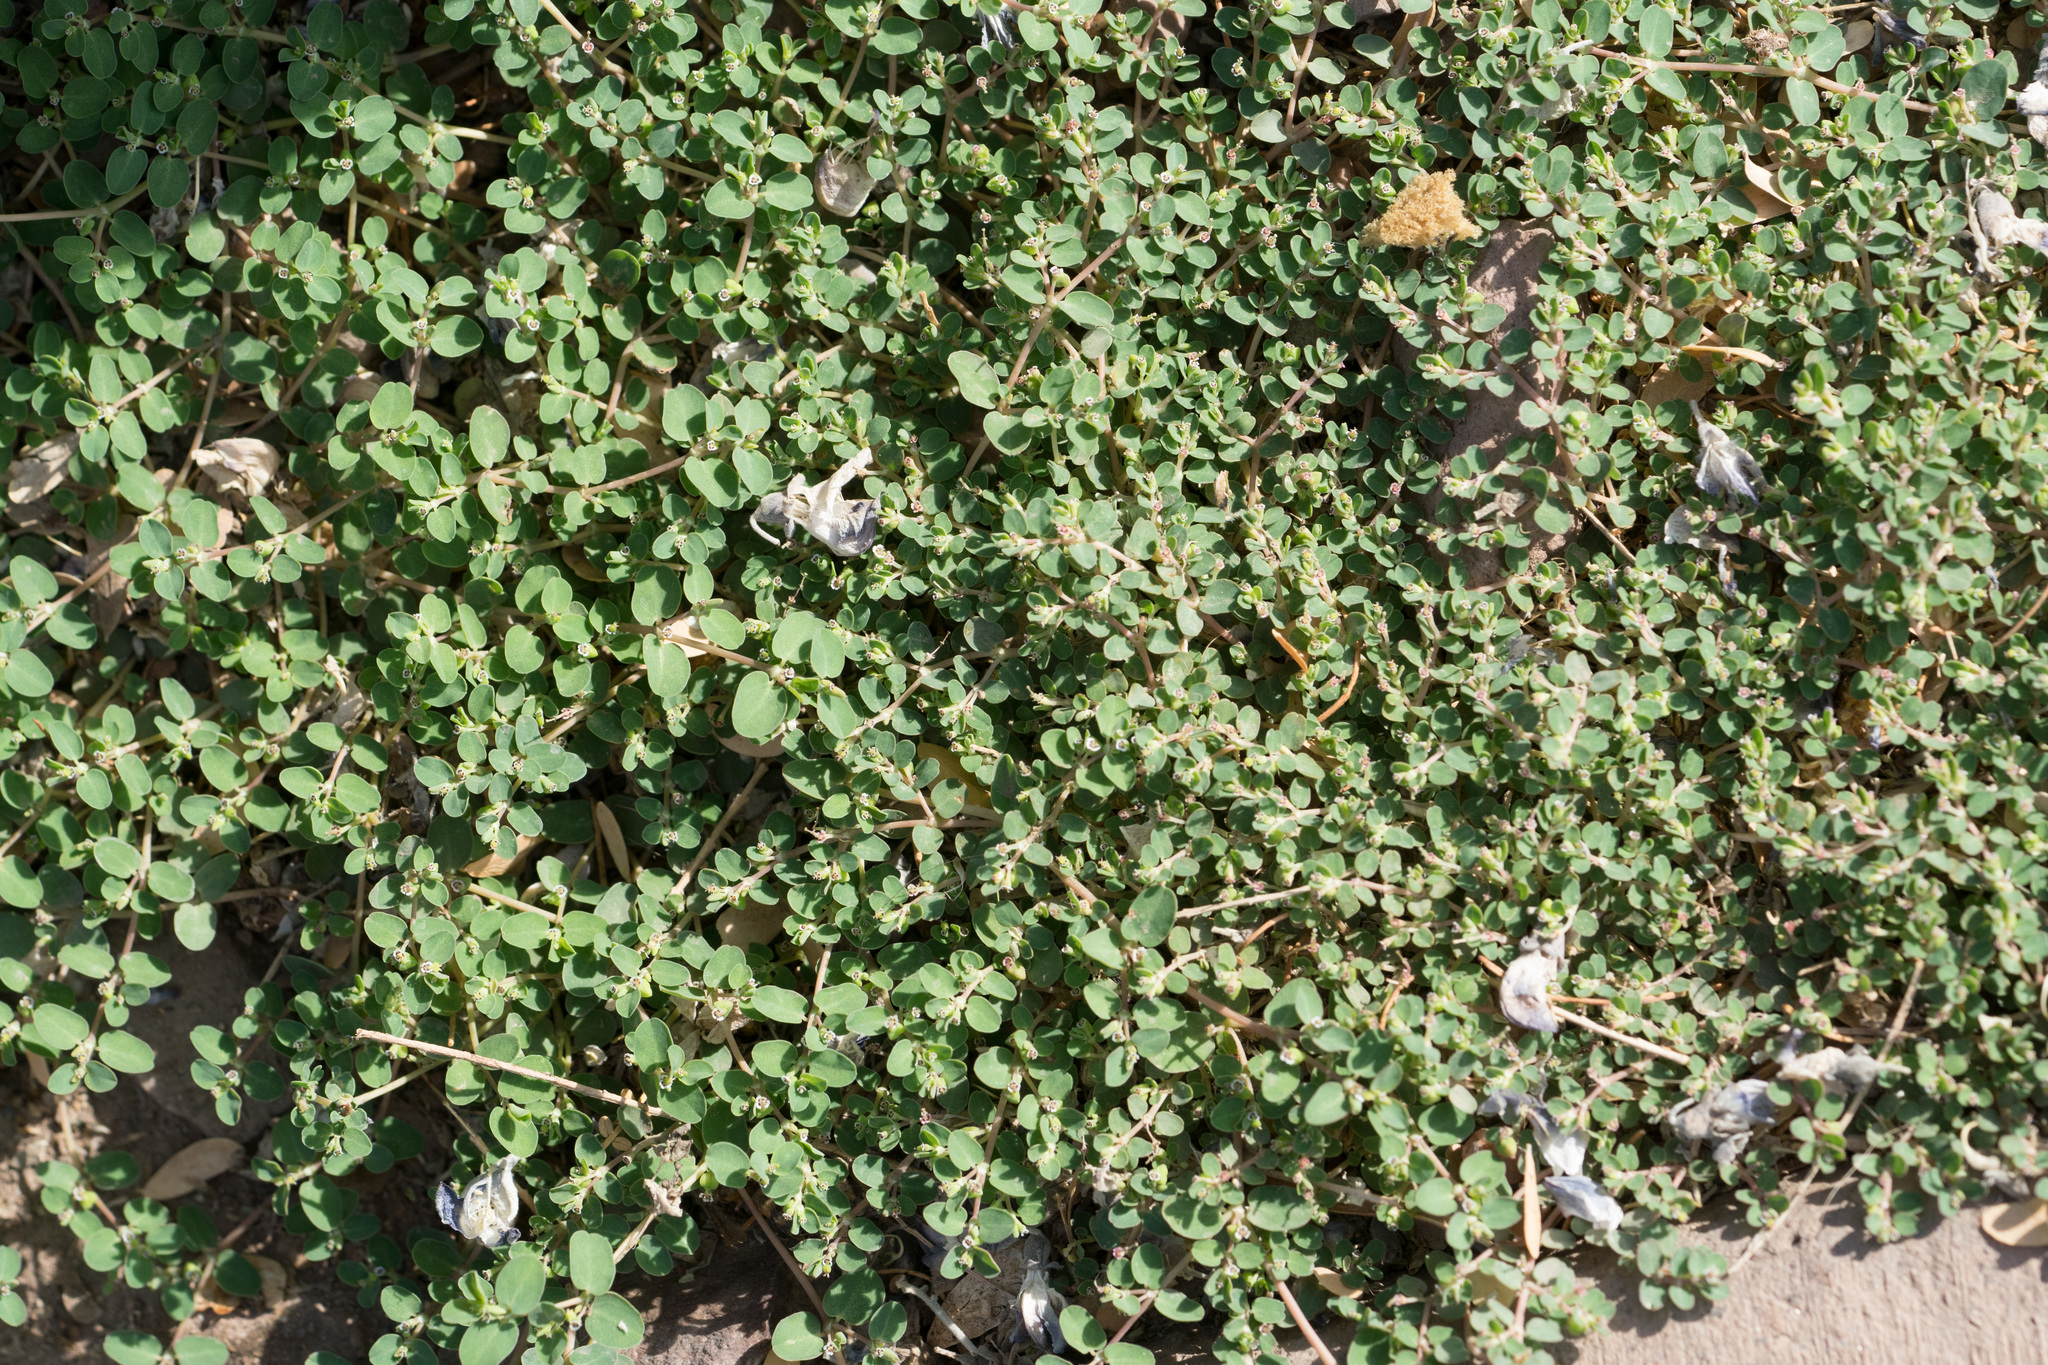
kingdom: Plantae
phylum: Tracheophyta
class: Magnoliopsida
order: Malpighiales
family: Euphorbiaceae
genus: Euphorbia
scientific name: Euphorbia serpens
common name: Matted sandmat
